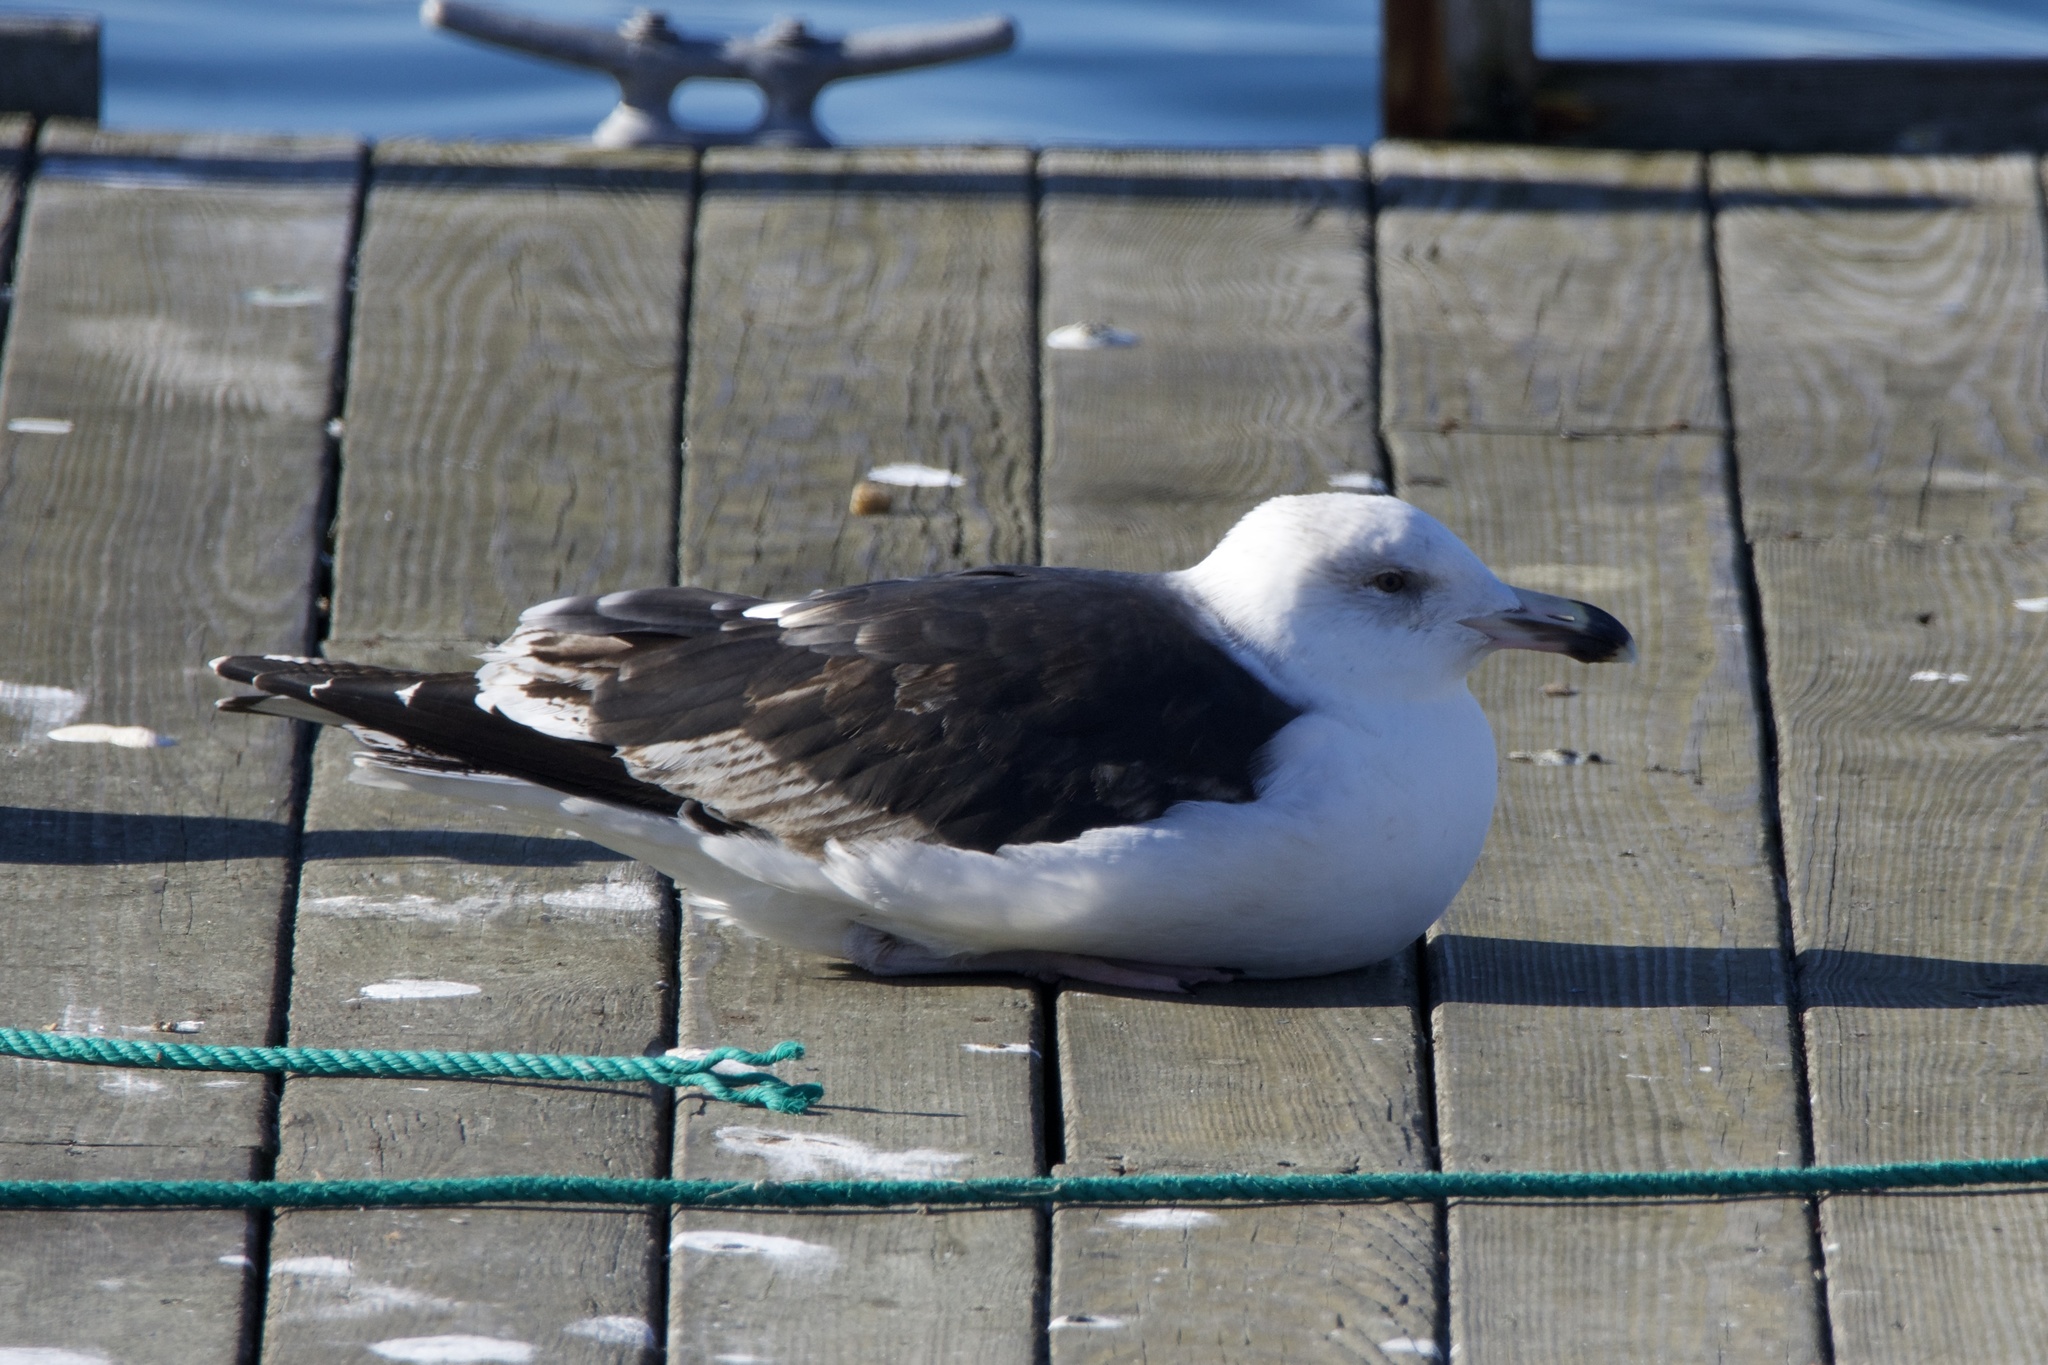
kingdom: Animalia
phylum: Chordata
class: Aves
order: Charadriiformes
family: Laridae
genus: Larus
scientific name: Larus marinus
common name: Great black-backed gull
